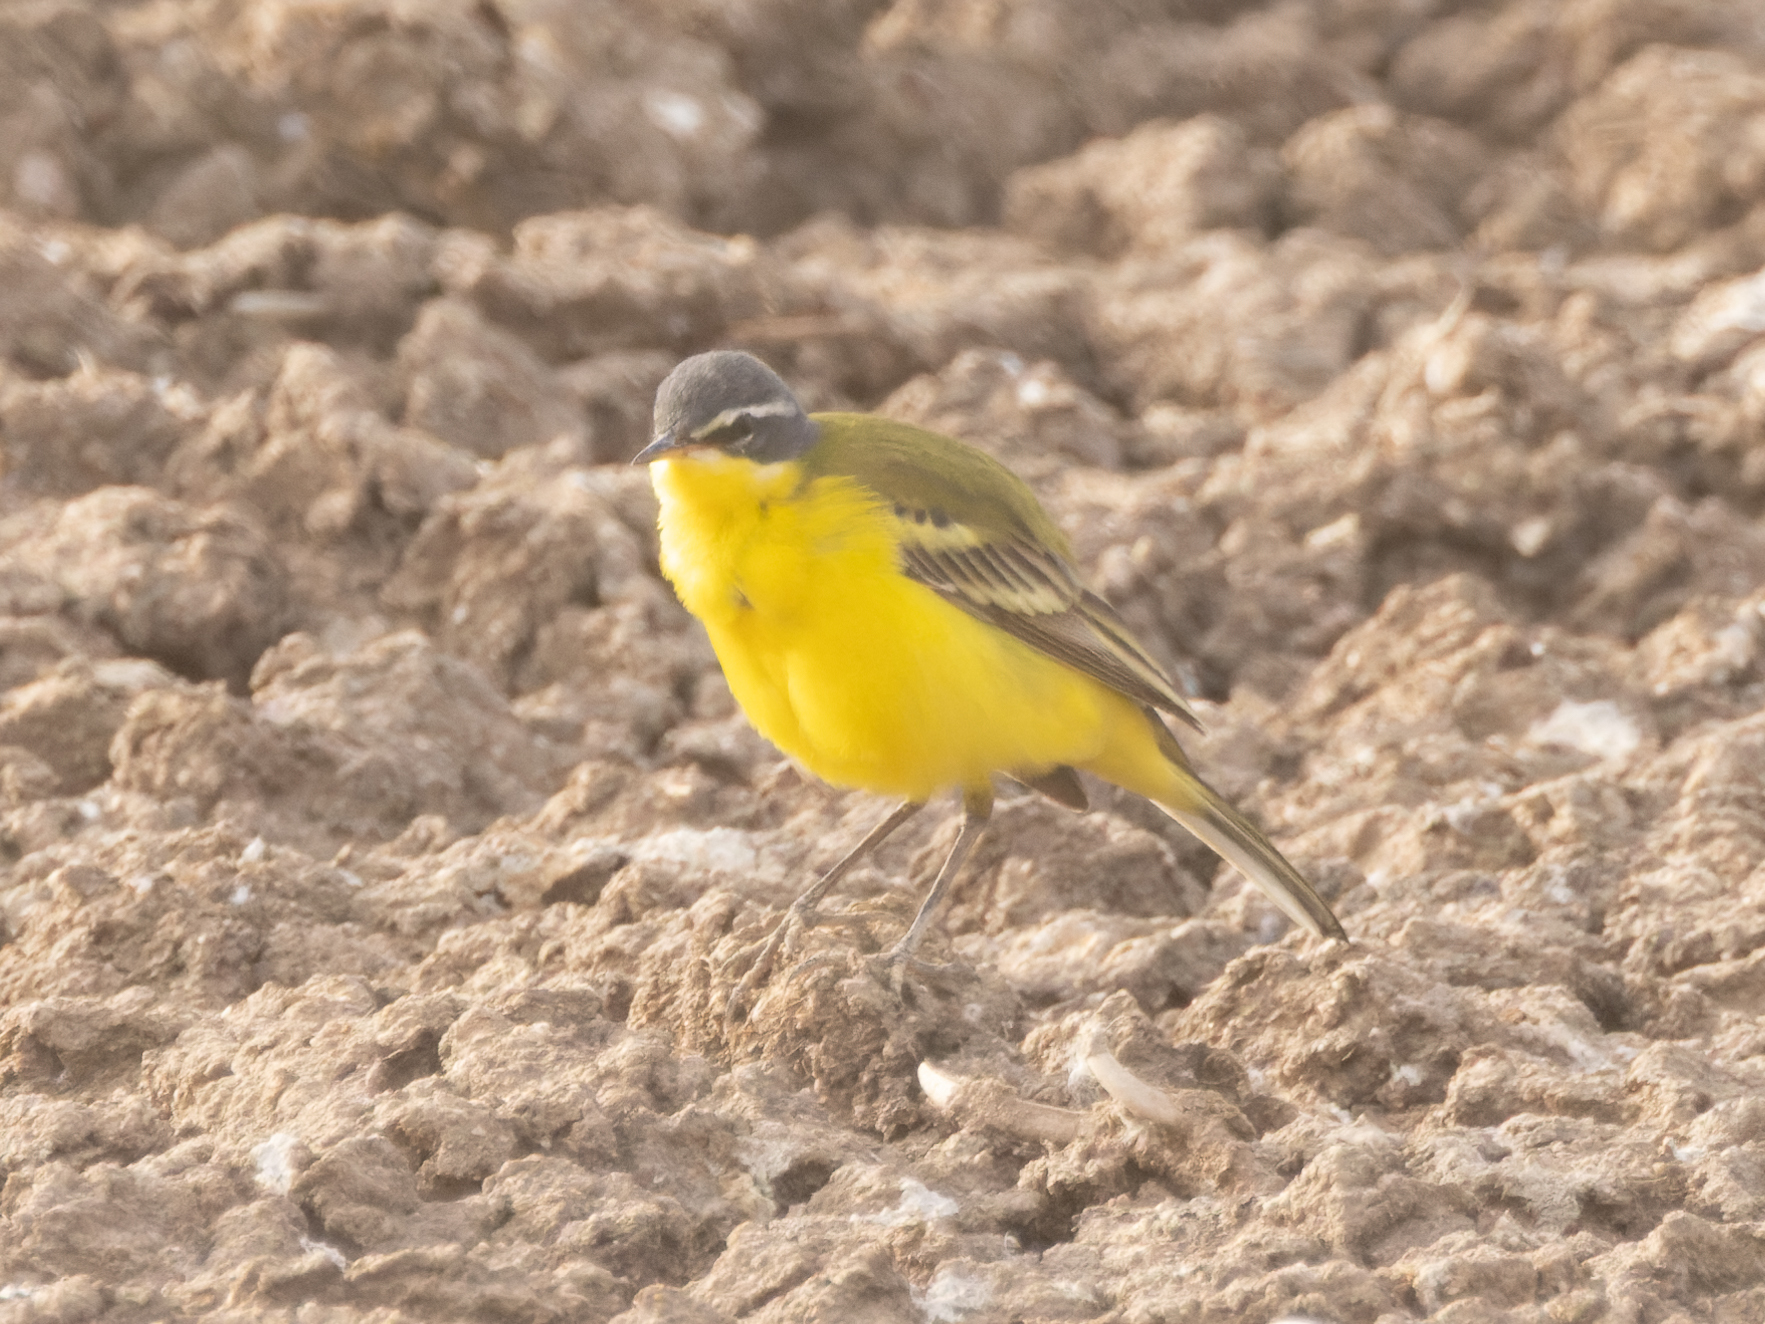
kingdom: Animalia
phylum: Chordata
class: Aves
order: Passeriformes
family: Motacillidae
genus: Motacilla
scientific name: Motacilla flava
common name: Western yellow wagtail
